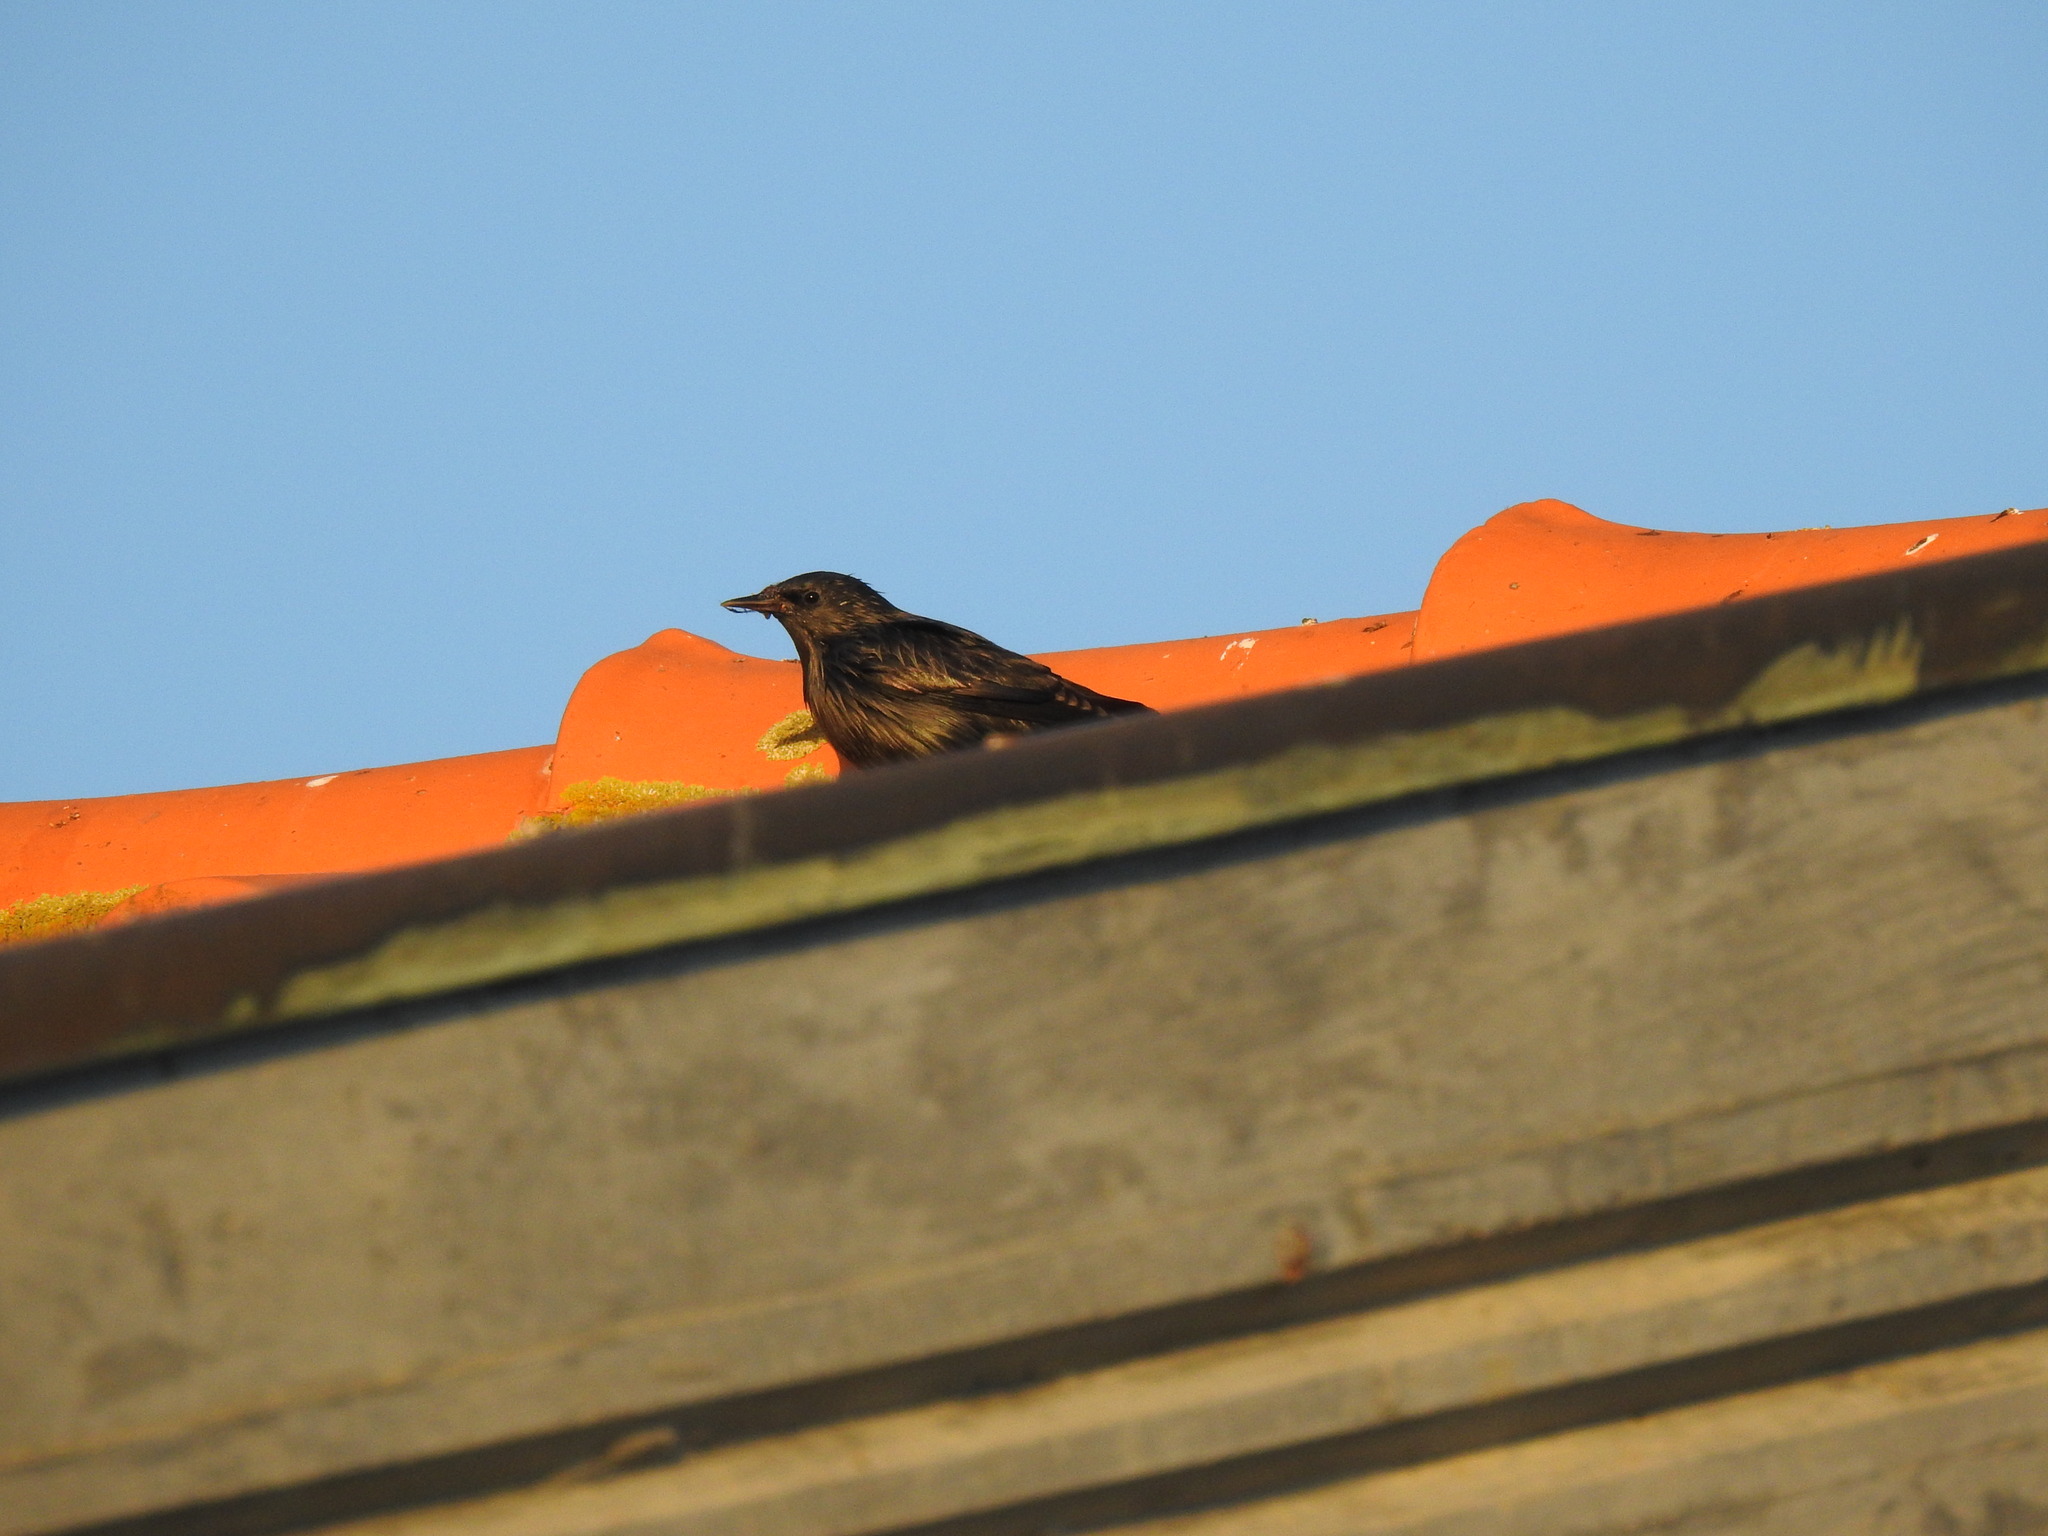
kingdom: Animalia
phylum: Chordata
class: Aves
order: Passeriformes
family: Sturnidae
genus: Sturnus
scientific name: Sturnus unicolor
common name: Spotless starling
